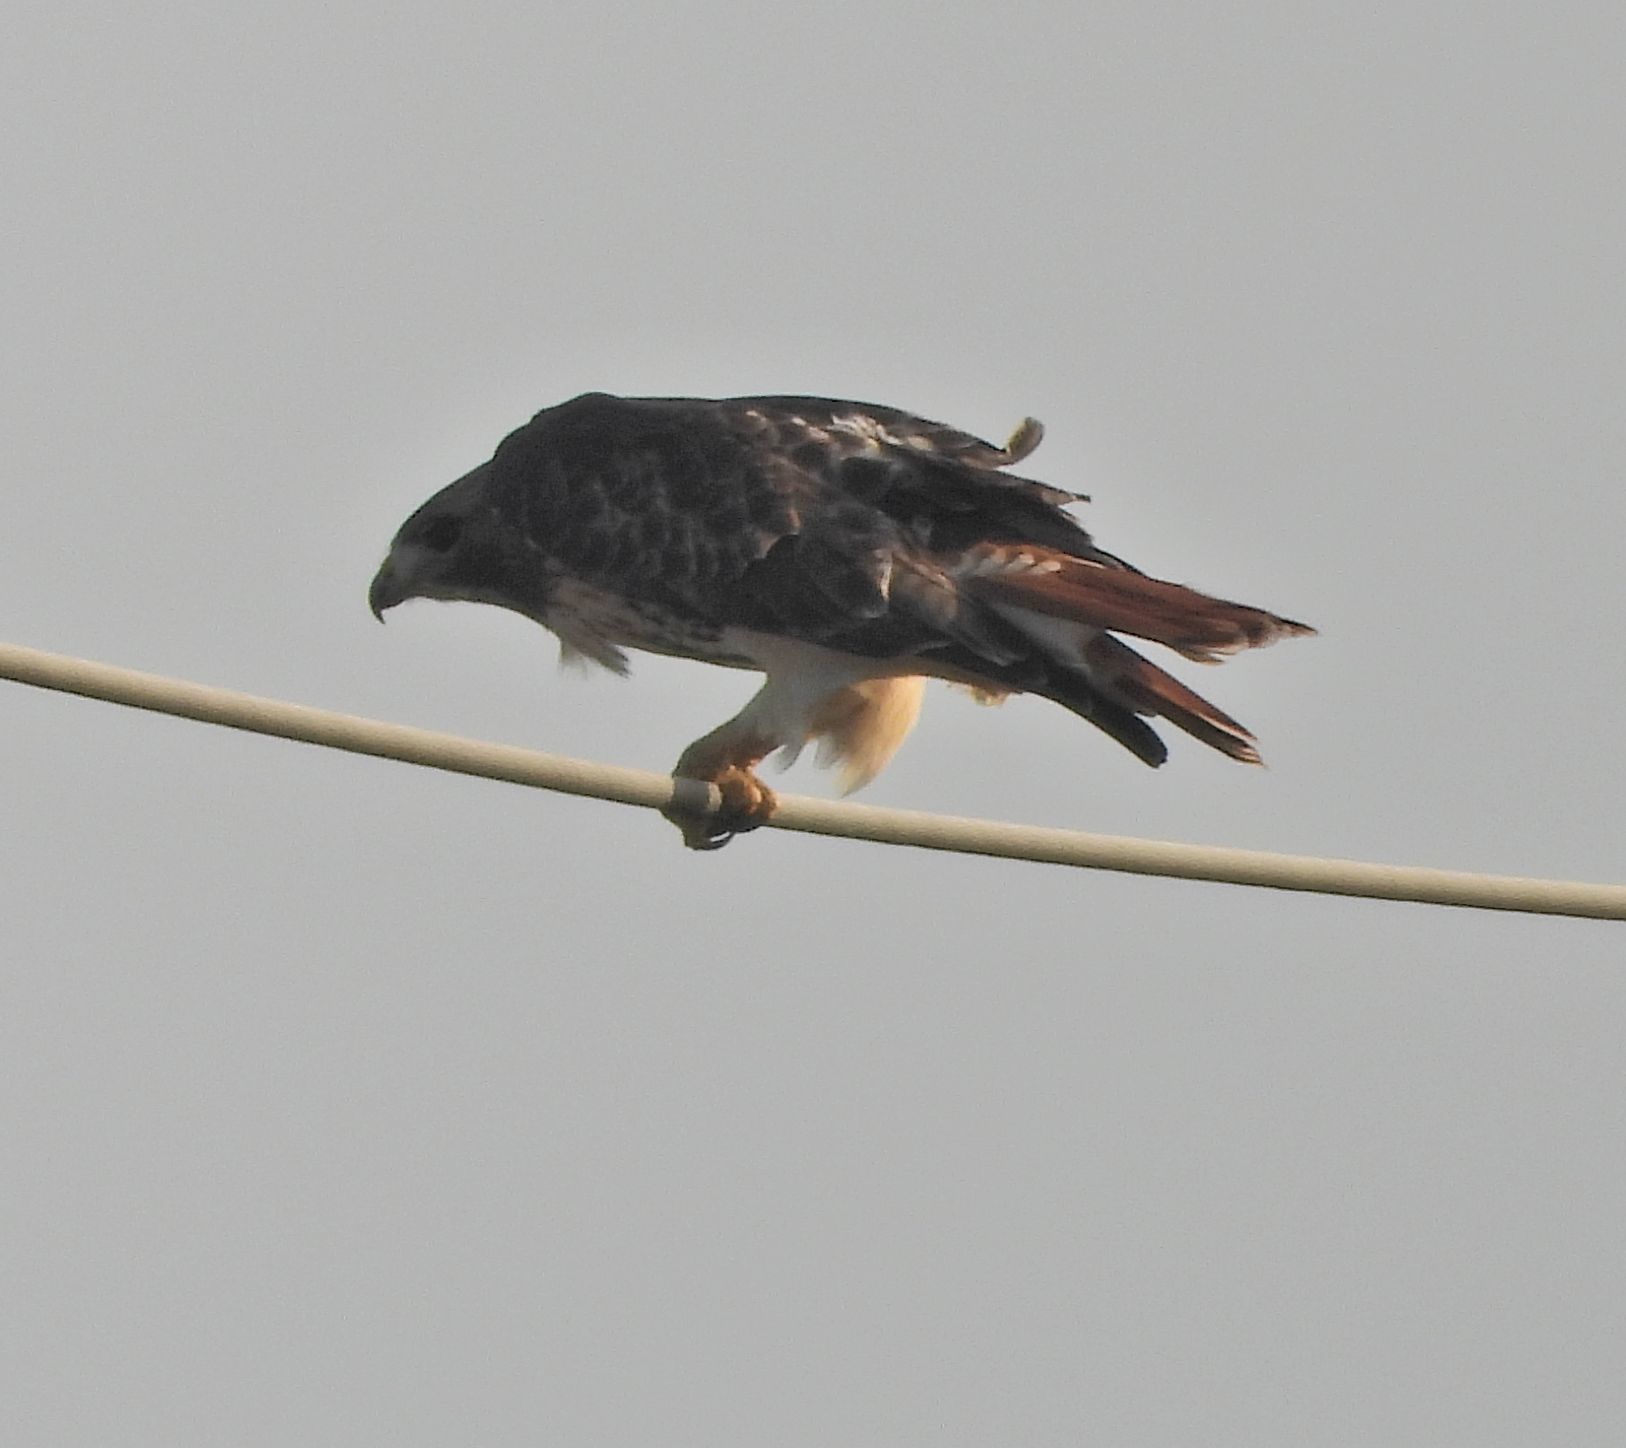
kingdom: Animalia
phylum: Chordata
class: Aves
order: Accipitriformes
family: Accipitridae
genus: Buteo
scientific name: Buteo jamaicensis
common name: Red-tailed hawk
